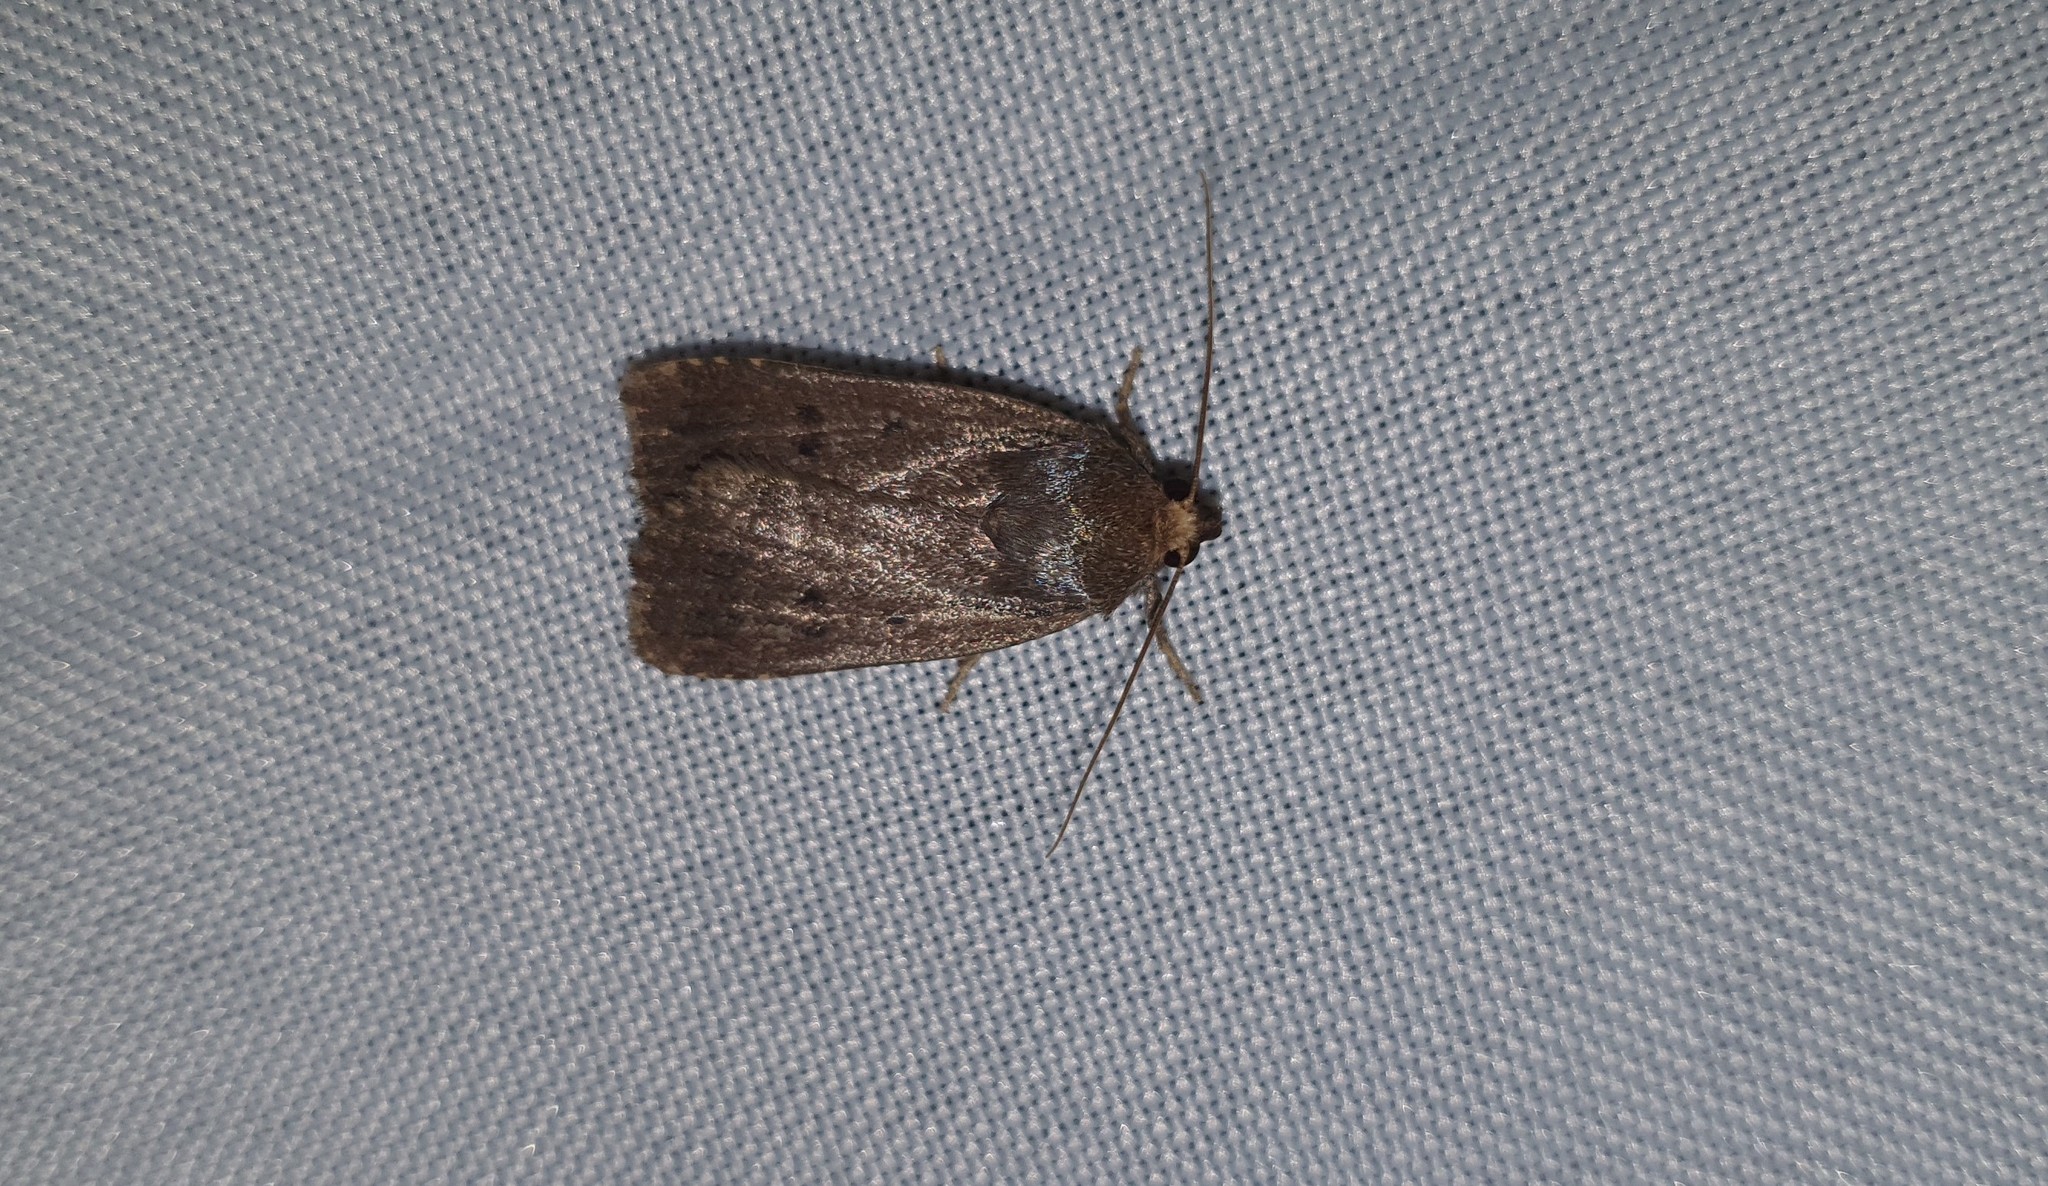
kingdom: Animalia
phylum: Arthropoda
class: Insecta
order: Lepidoptera
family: Noctuidae
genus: Amphipyra
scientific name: Amphipyra tragopoginis
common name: Mouse moth
